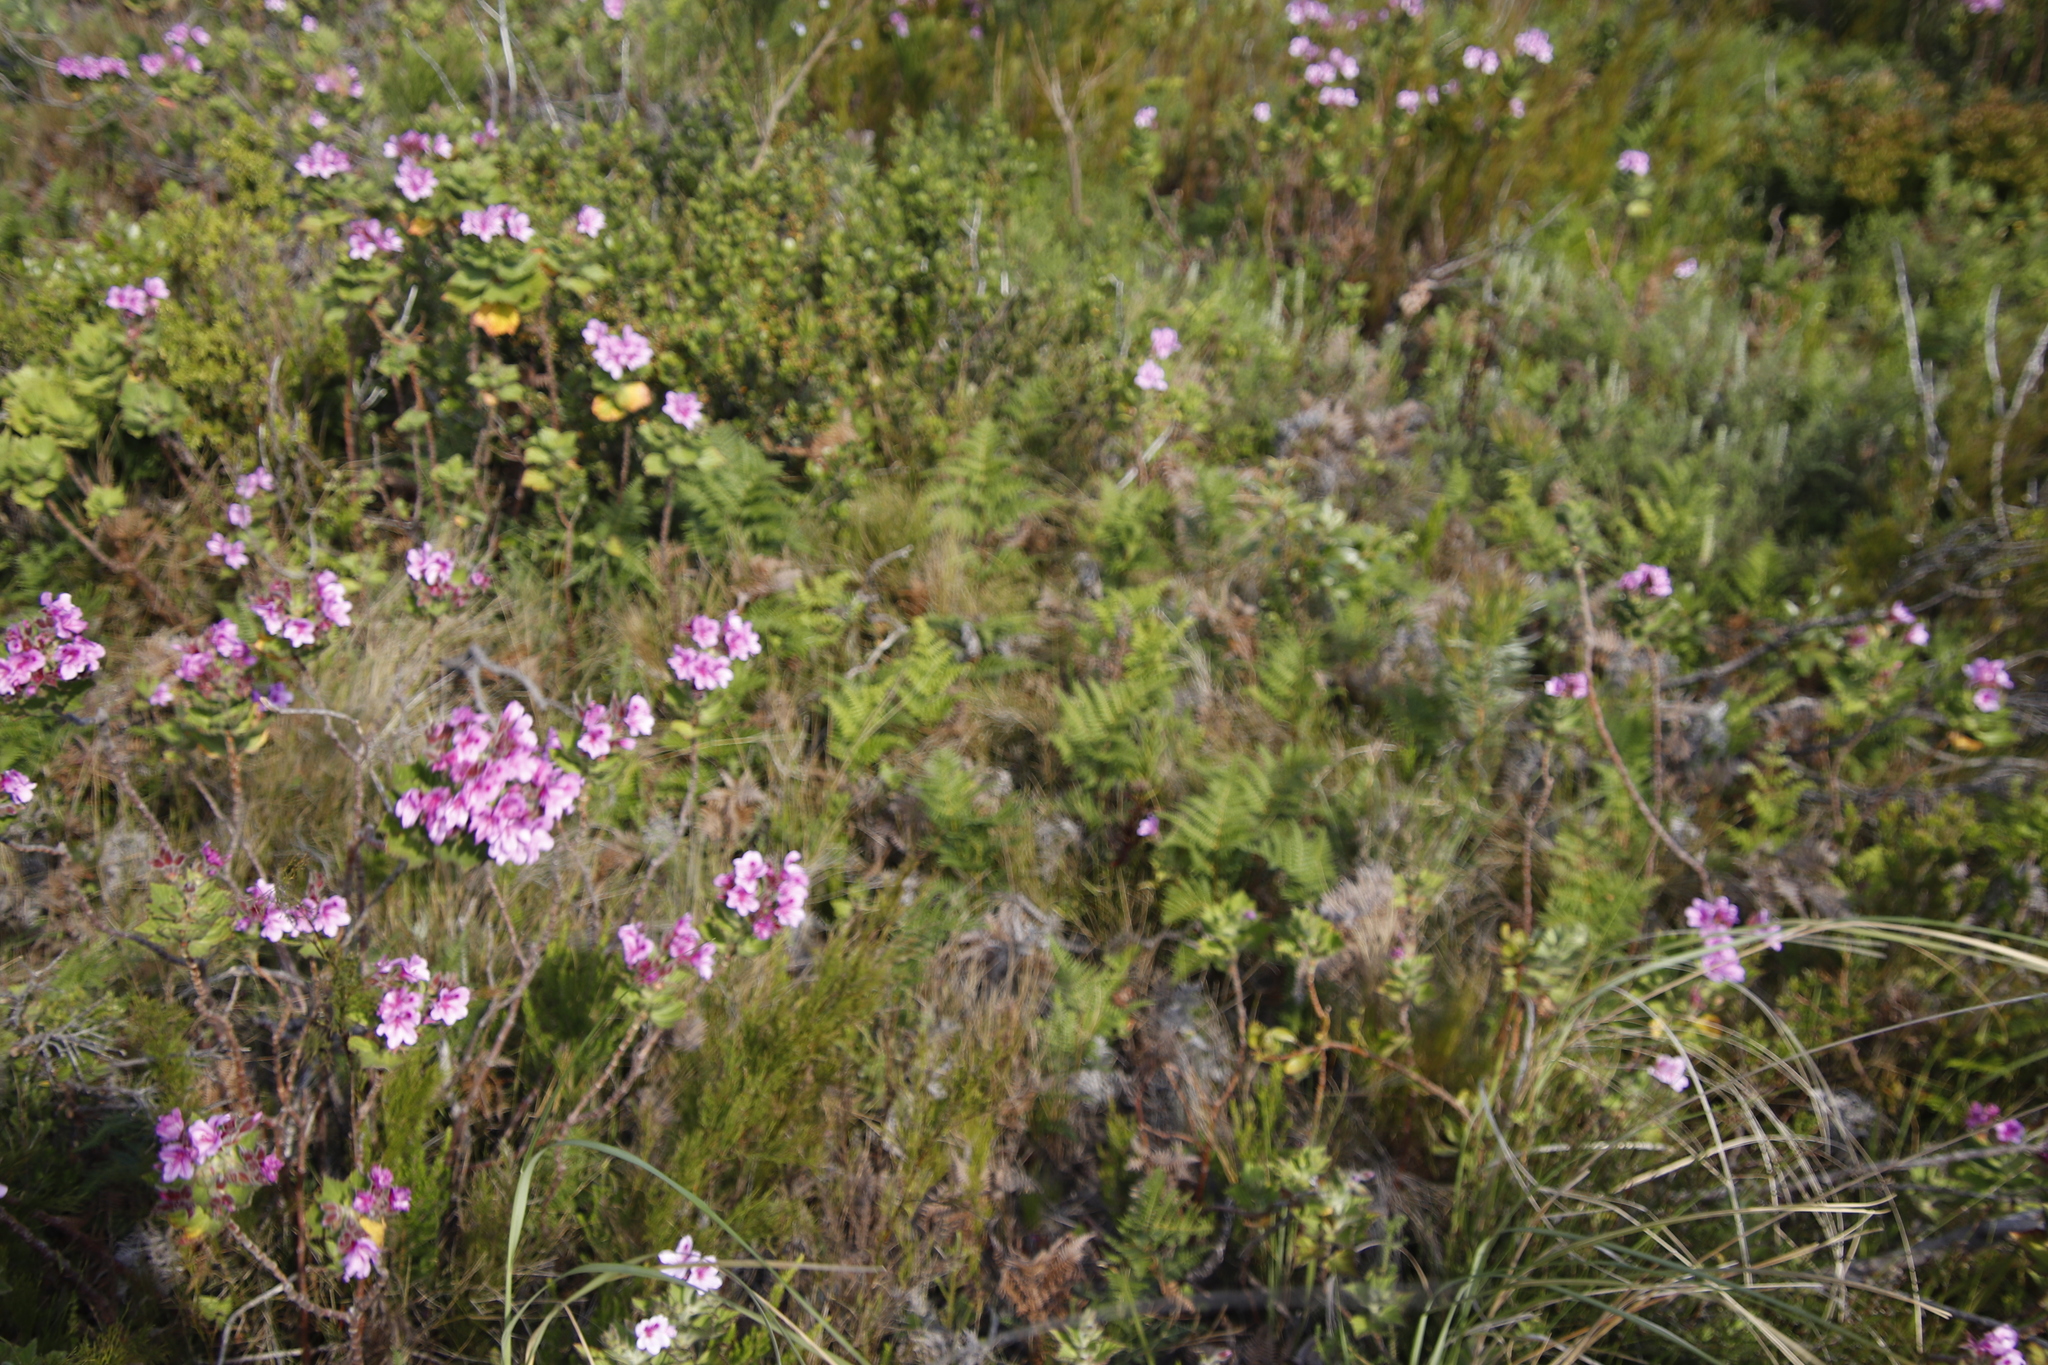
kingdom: Plantae
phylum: Tracheophyta
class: Polypodiopsida
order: Polypodiales
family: Dennstaedtiaceae
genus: Pteridium
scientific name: Pteridium aquilinum
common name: Bracken
